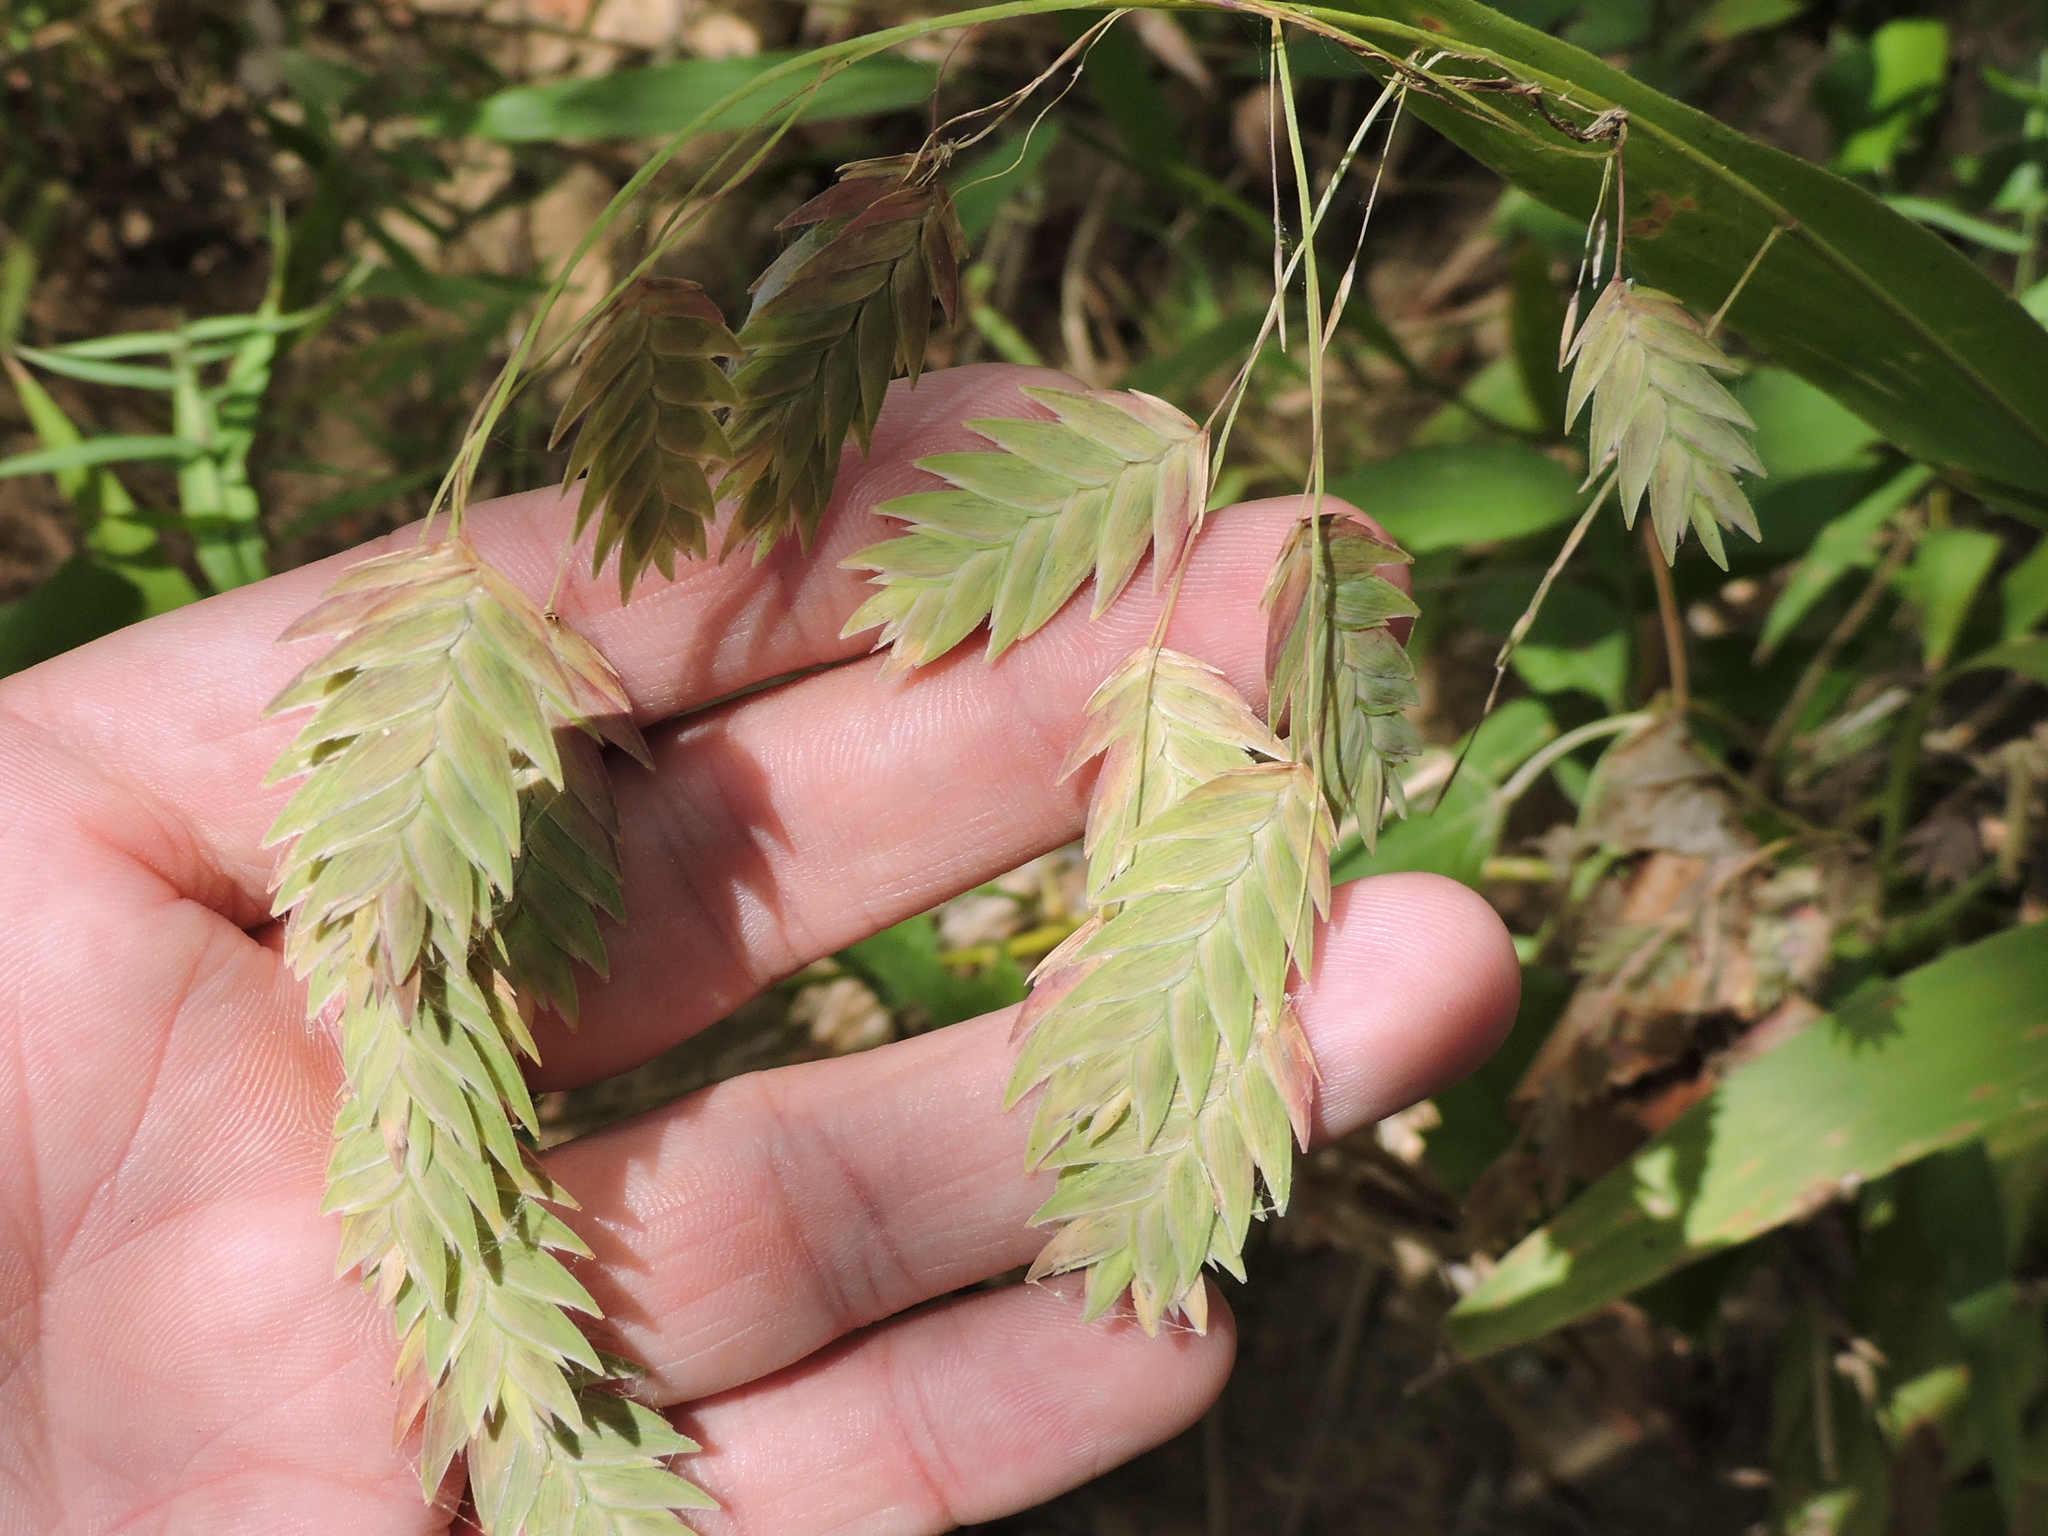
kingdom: Plantae
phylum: Tracheophyta
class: Liliopsida
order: Poales
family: Poaceae
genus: Chasmanthium
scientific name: Chasmanthium latifolium
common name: Broad-leaved chasmanthium
